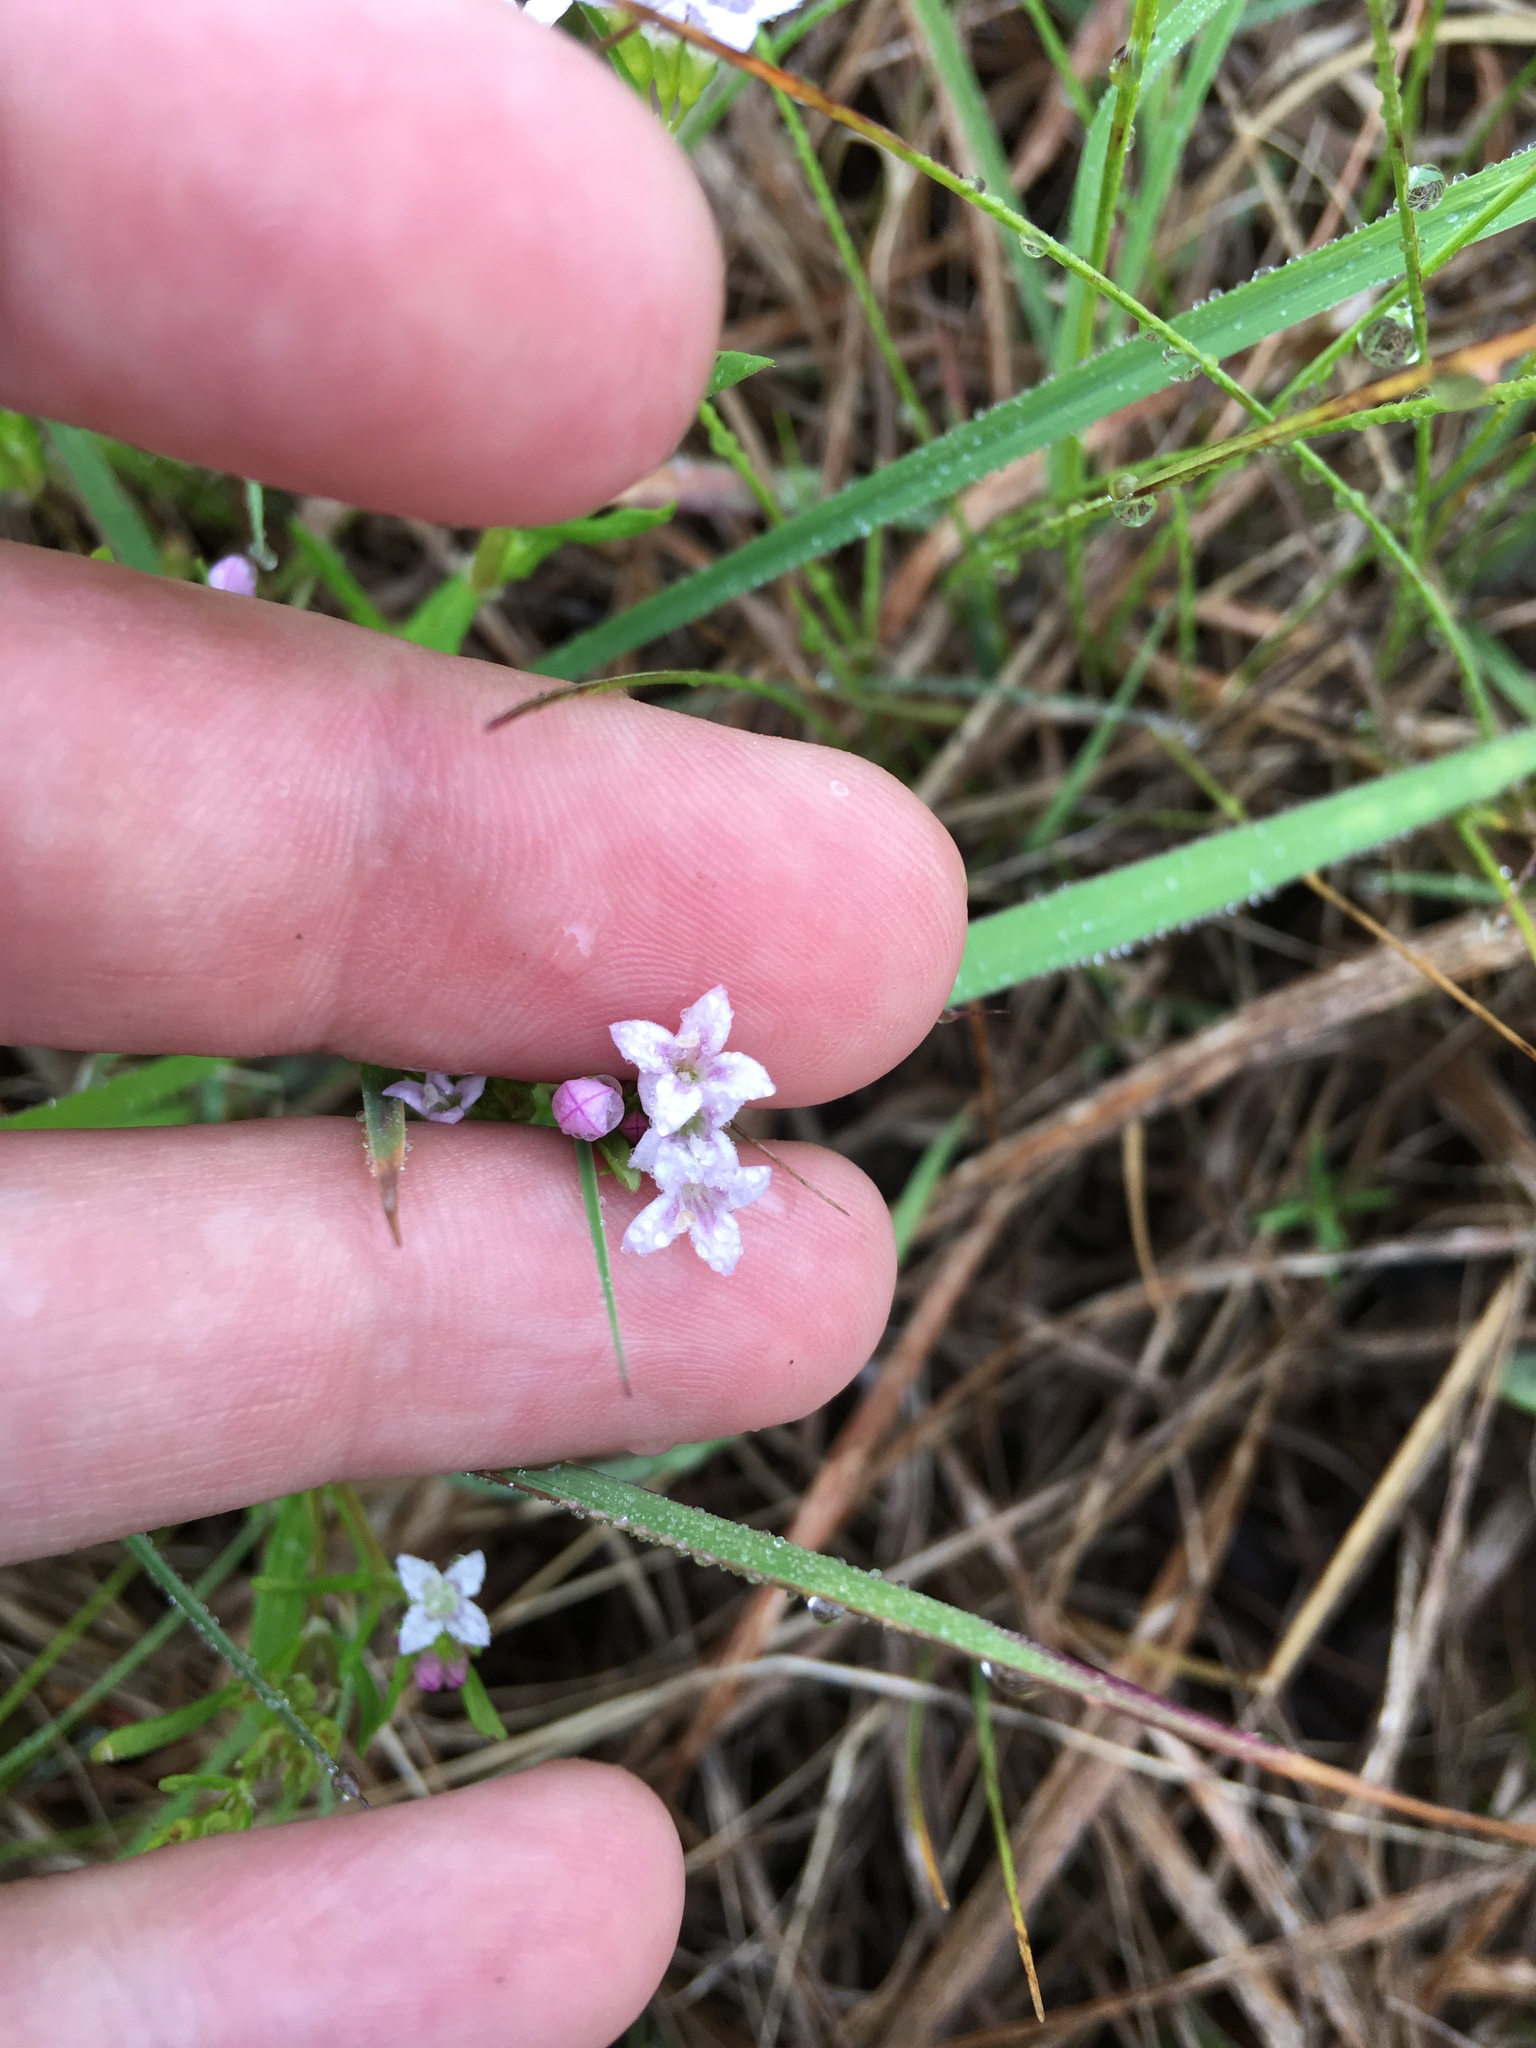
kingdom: Plantae
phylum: Tracheophyta
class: Magnoliopsida
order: Gentianales
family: Rubiaceae
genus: Houstonia
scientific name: Houstonia longifolia
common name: Long-leaved bluets
